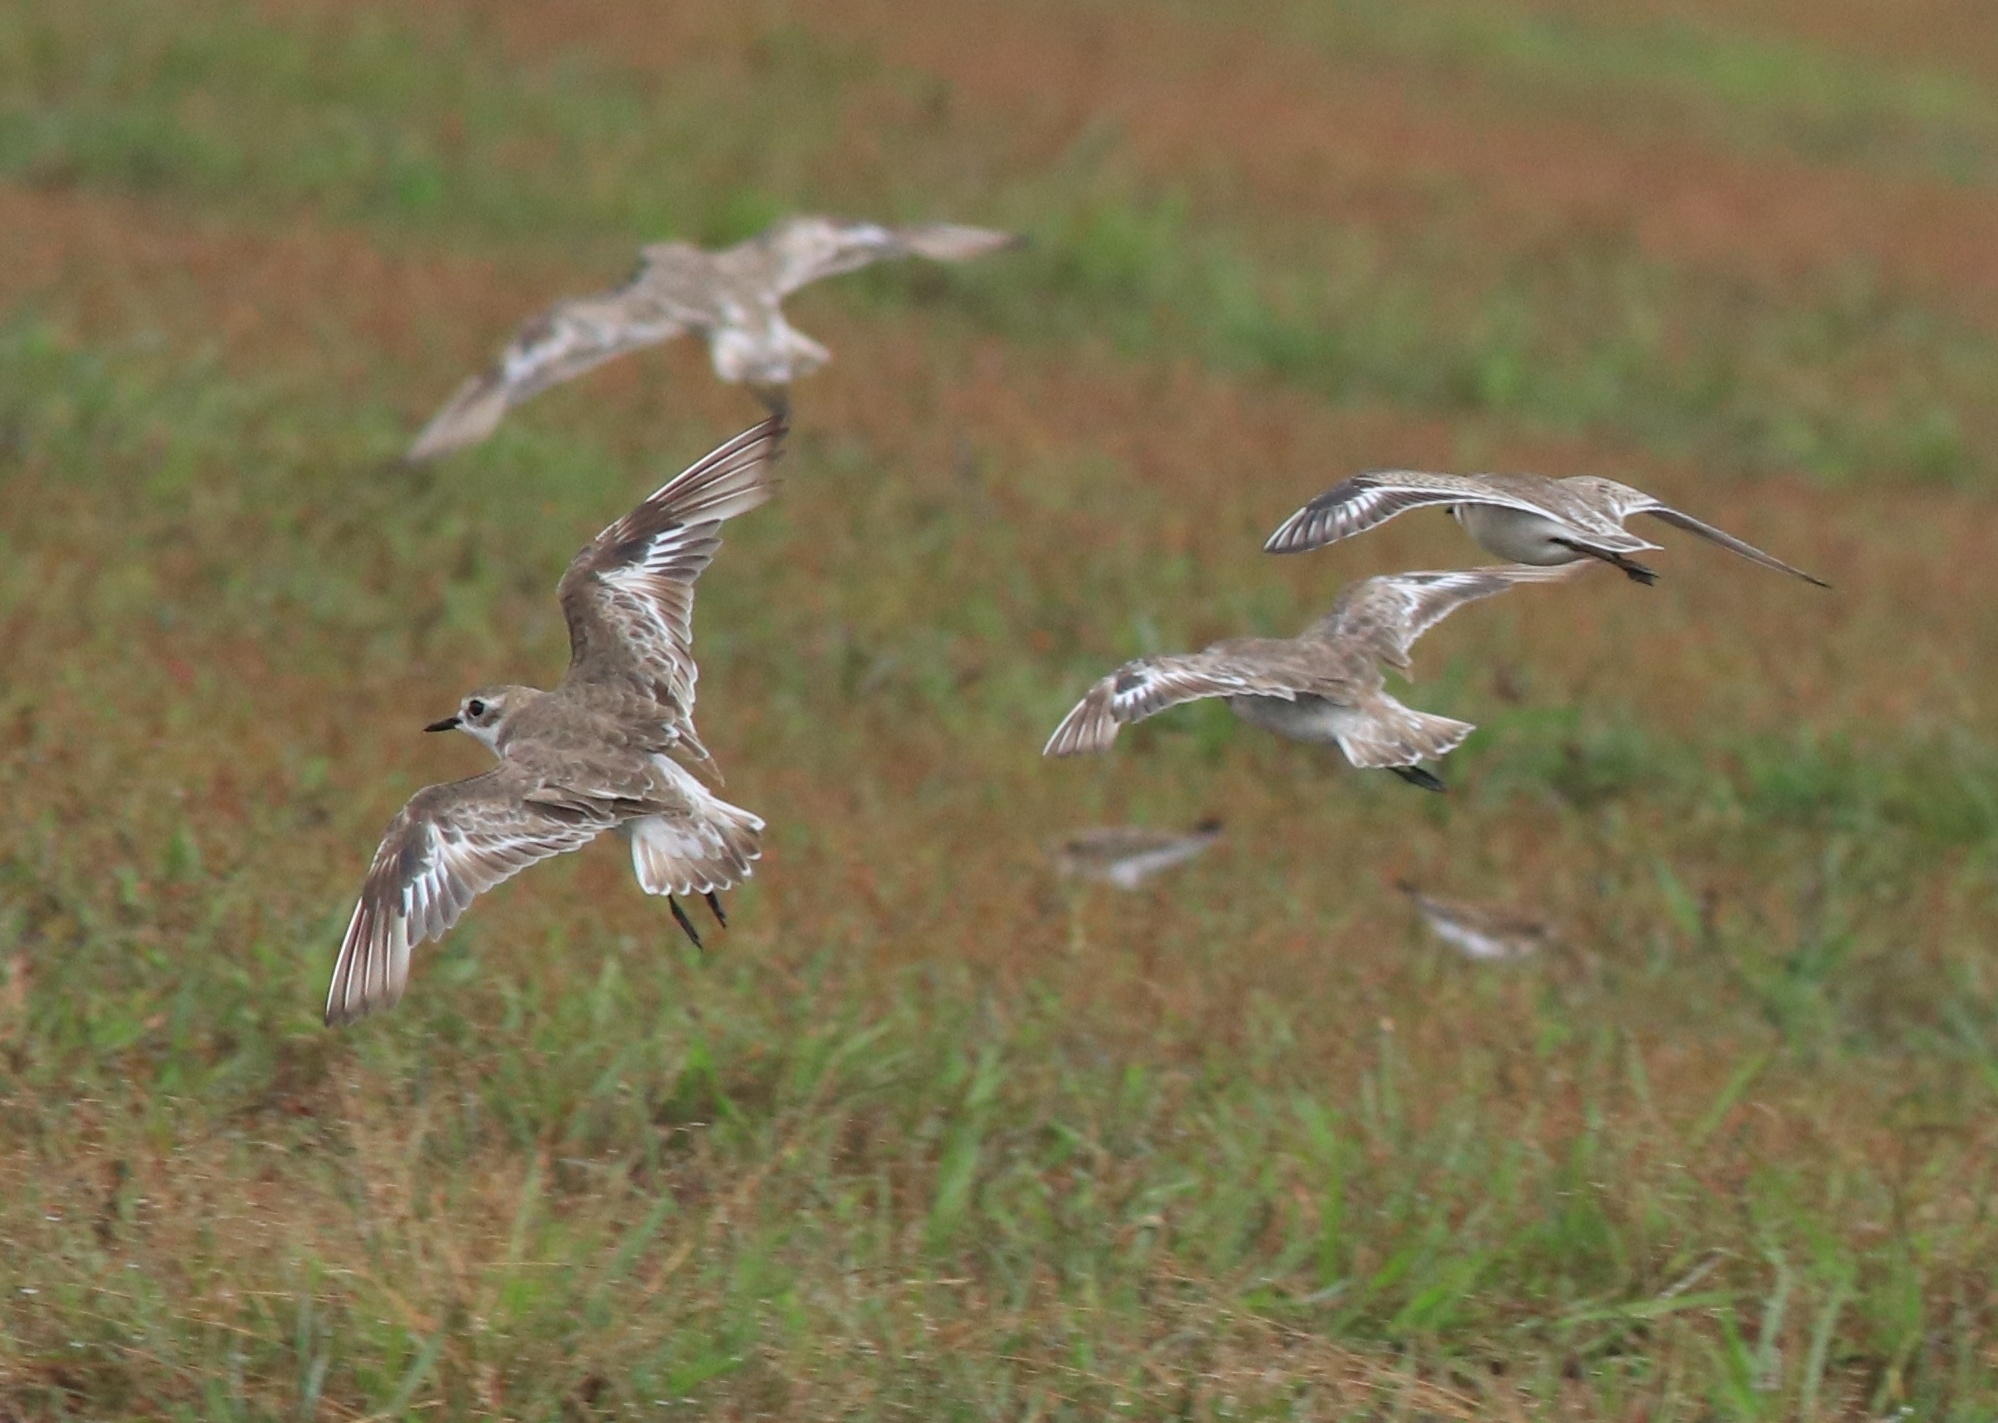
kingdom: Animalia
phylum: Chordata
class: Aves
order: Charadriiformes
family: Charadriidae
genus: Anarhynchus
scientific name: Anarhynchus
